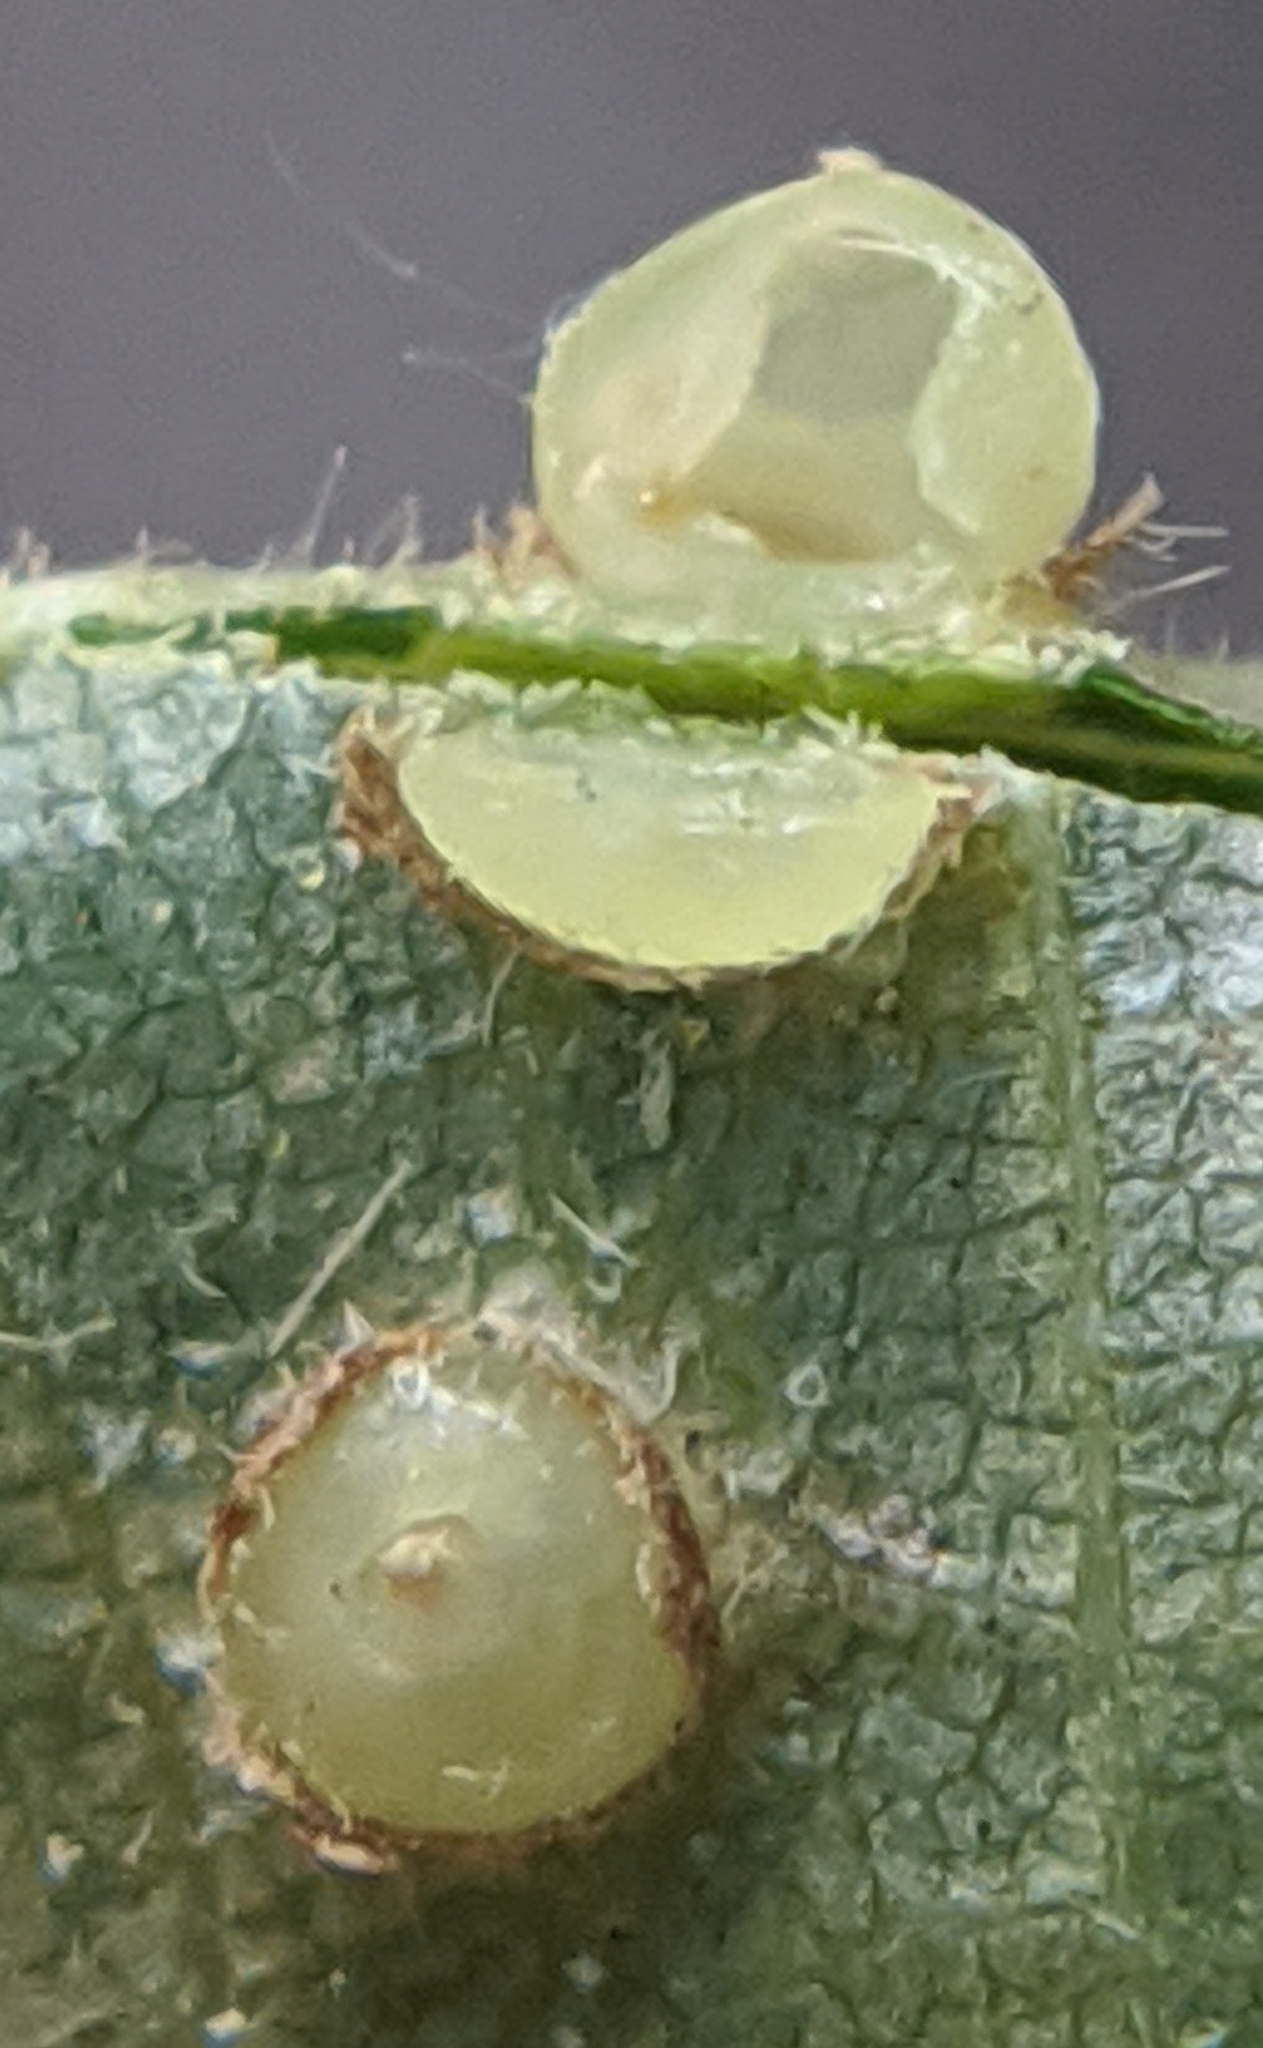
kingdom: Animalia
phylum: Arthropoda
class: Insecta
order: Diptera
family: Cecidomyiidae
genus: Caryomyia
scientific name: Caryomyia levicrustum
